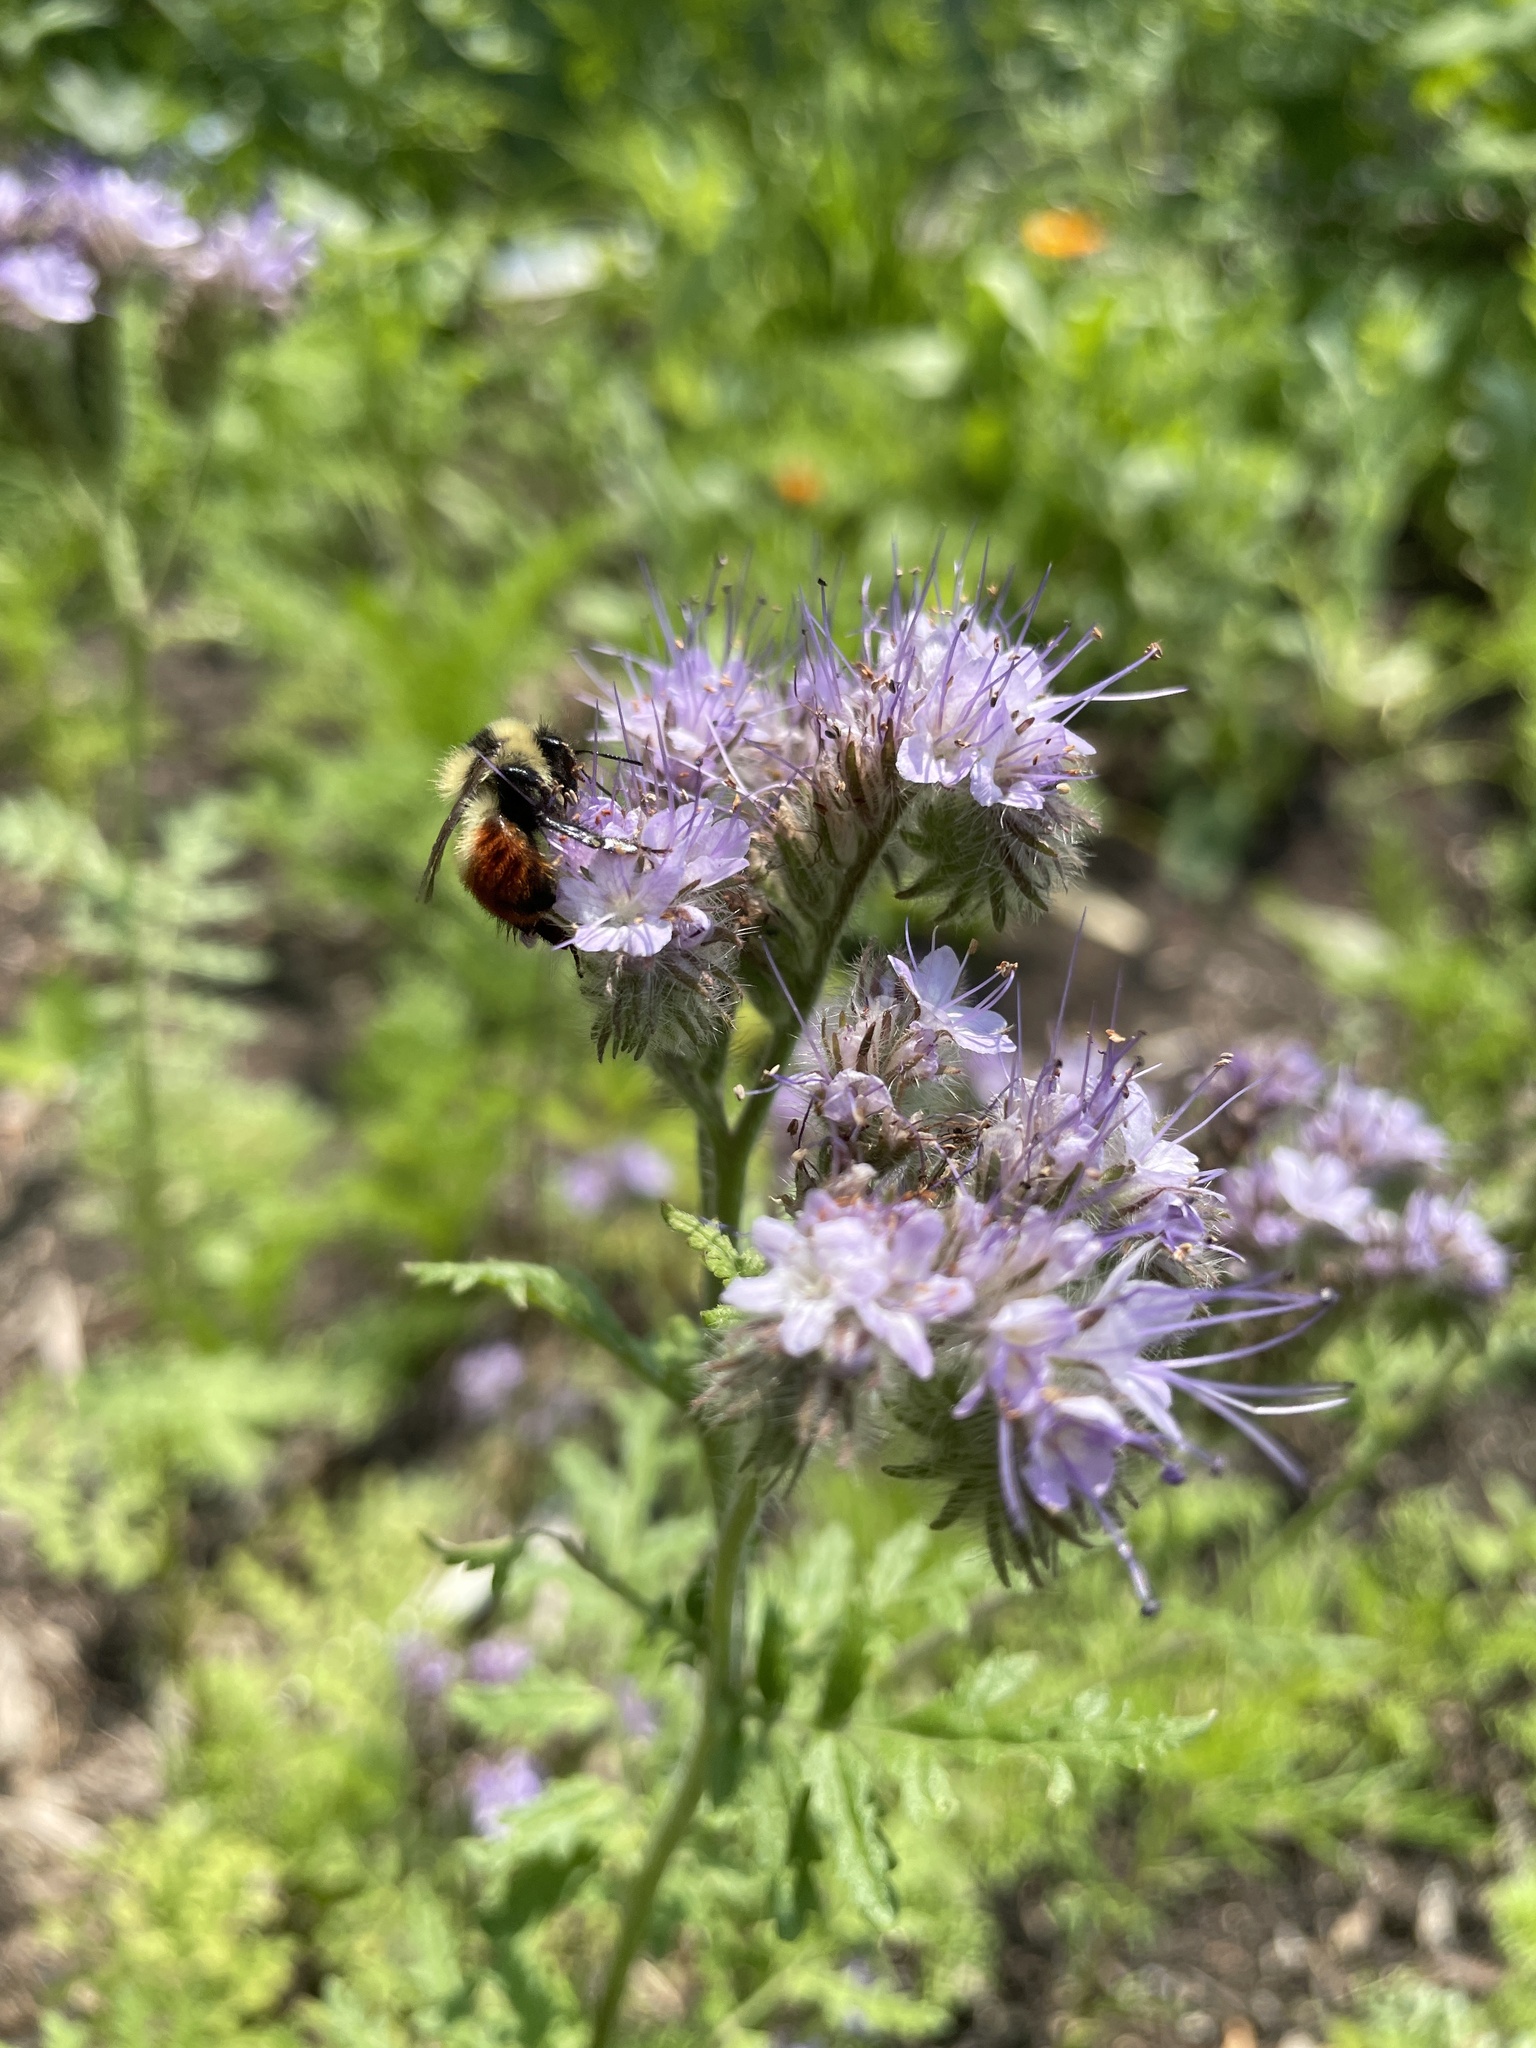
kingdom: Animalia
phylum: Arthropoda
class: Insecta
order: Hymenoptera
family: Apidae
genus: Bombus
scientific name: Bombus rufocinctus
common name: Red-belted bumble bee
